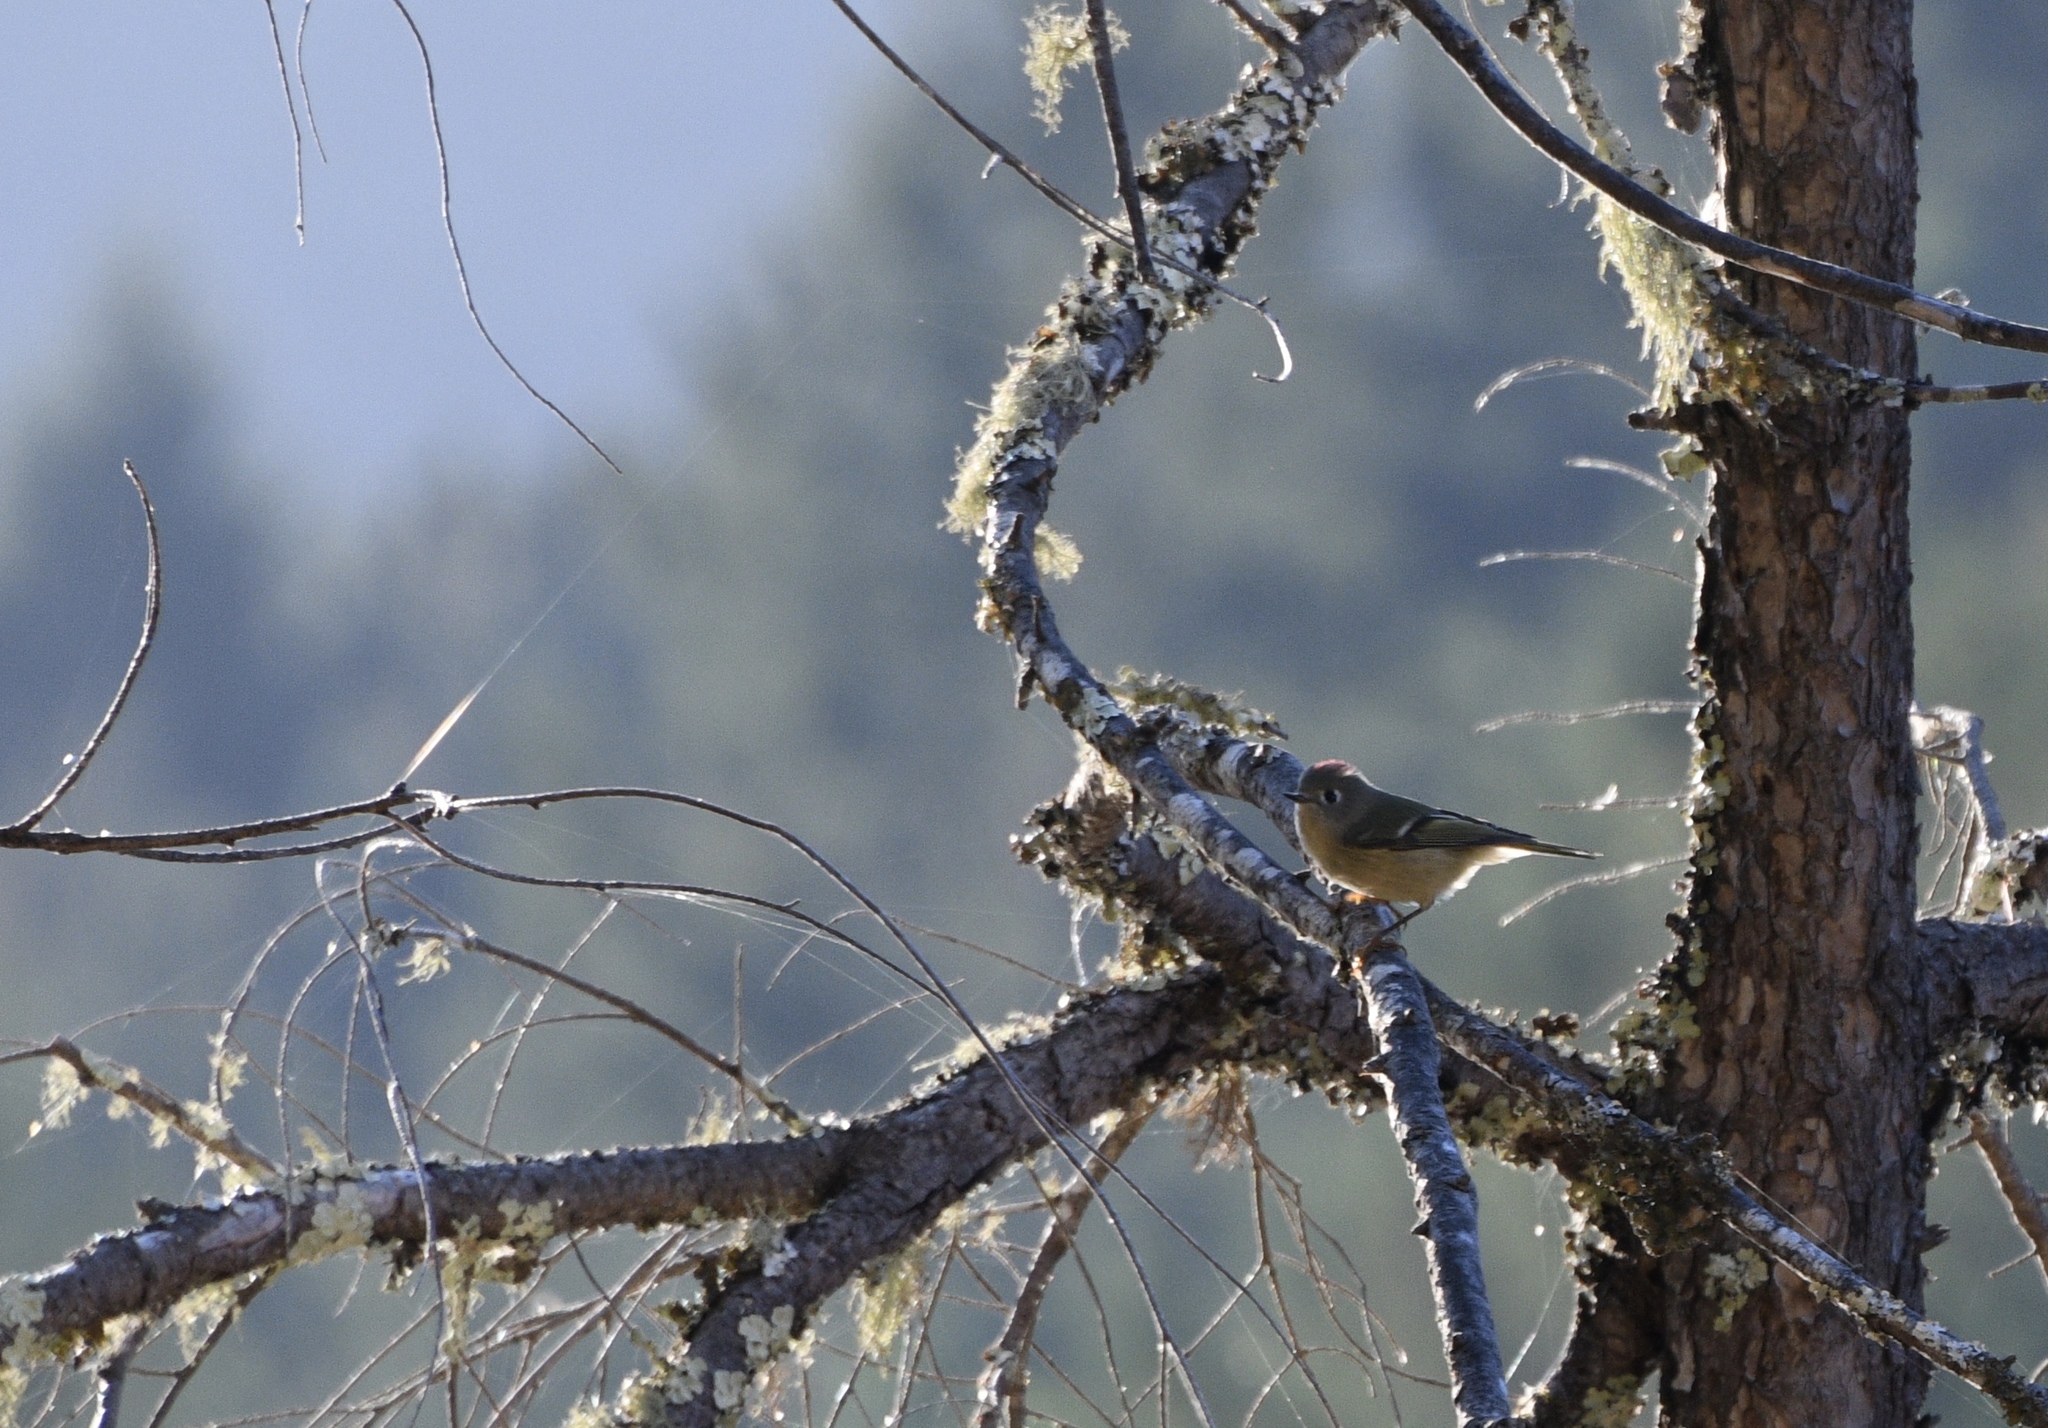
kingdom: Animalia
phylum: Chordata
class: Aves
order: Passeriformes
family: Regulidae
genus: Regulus
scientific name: Regulus calendula
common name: Ruby-crowned kinglet
